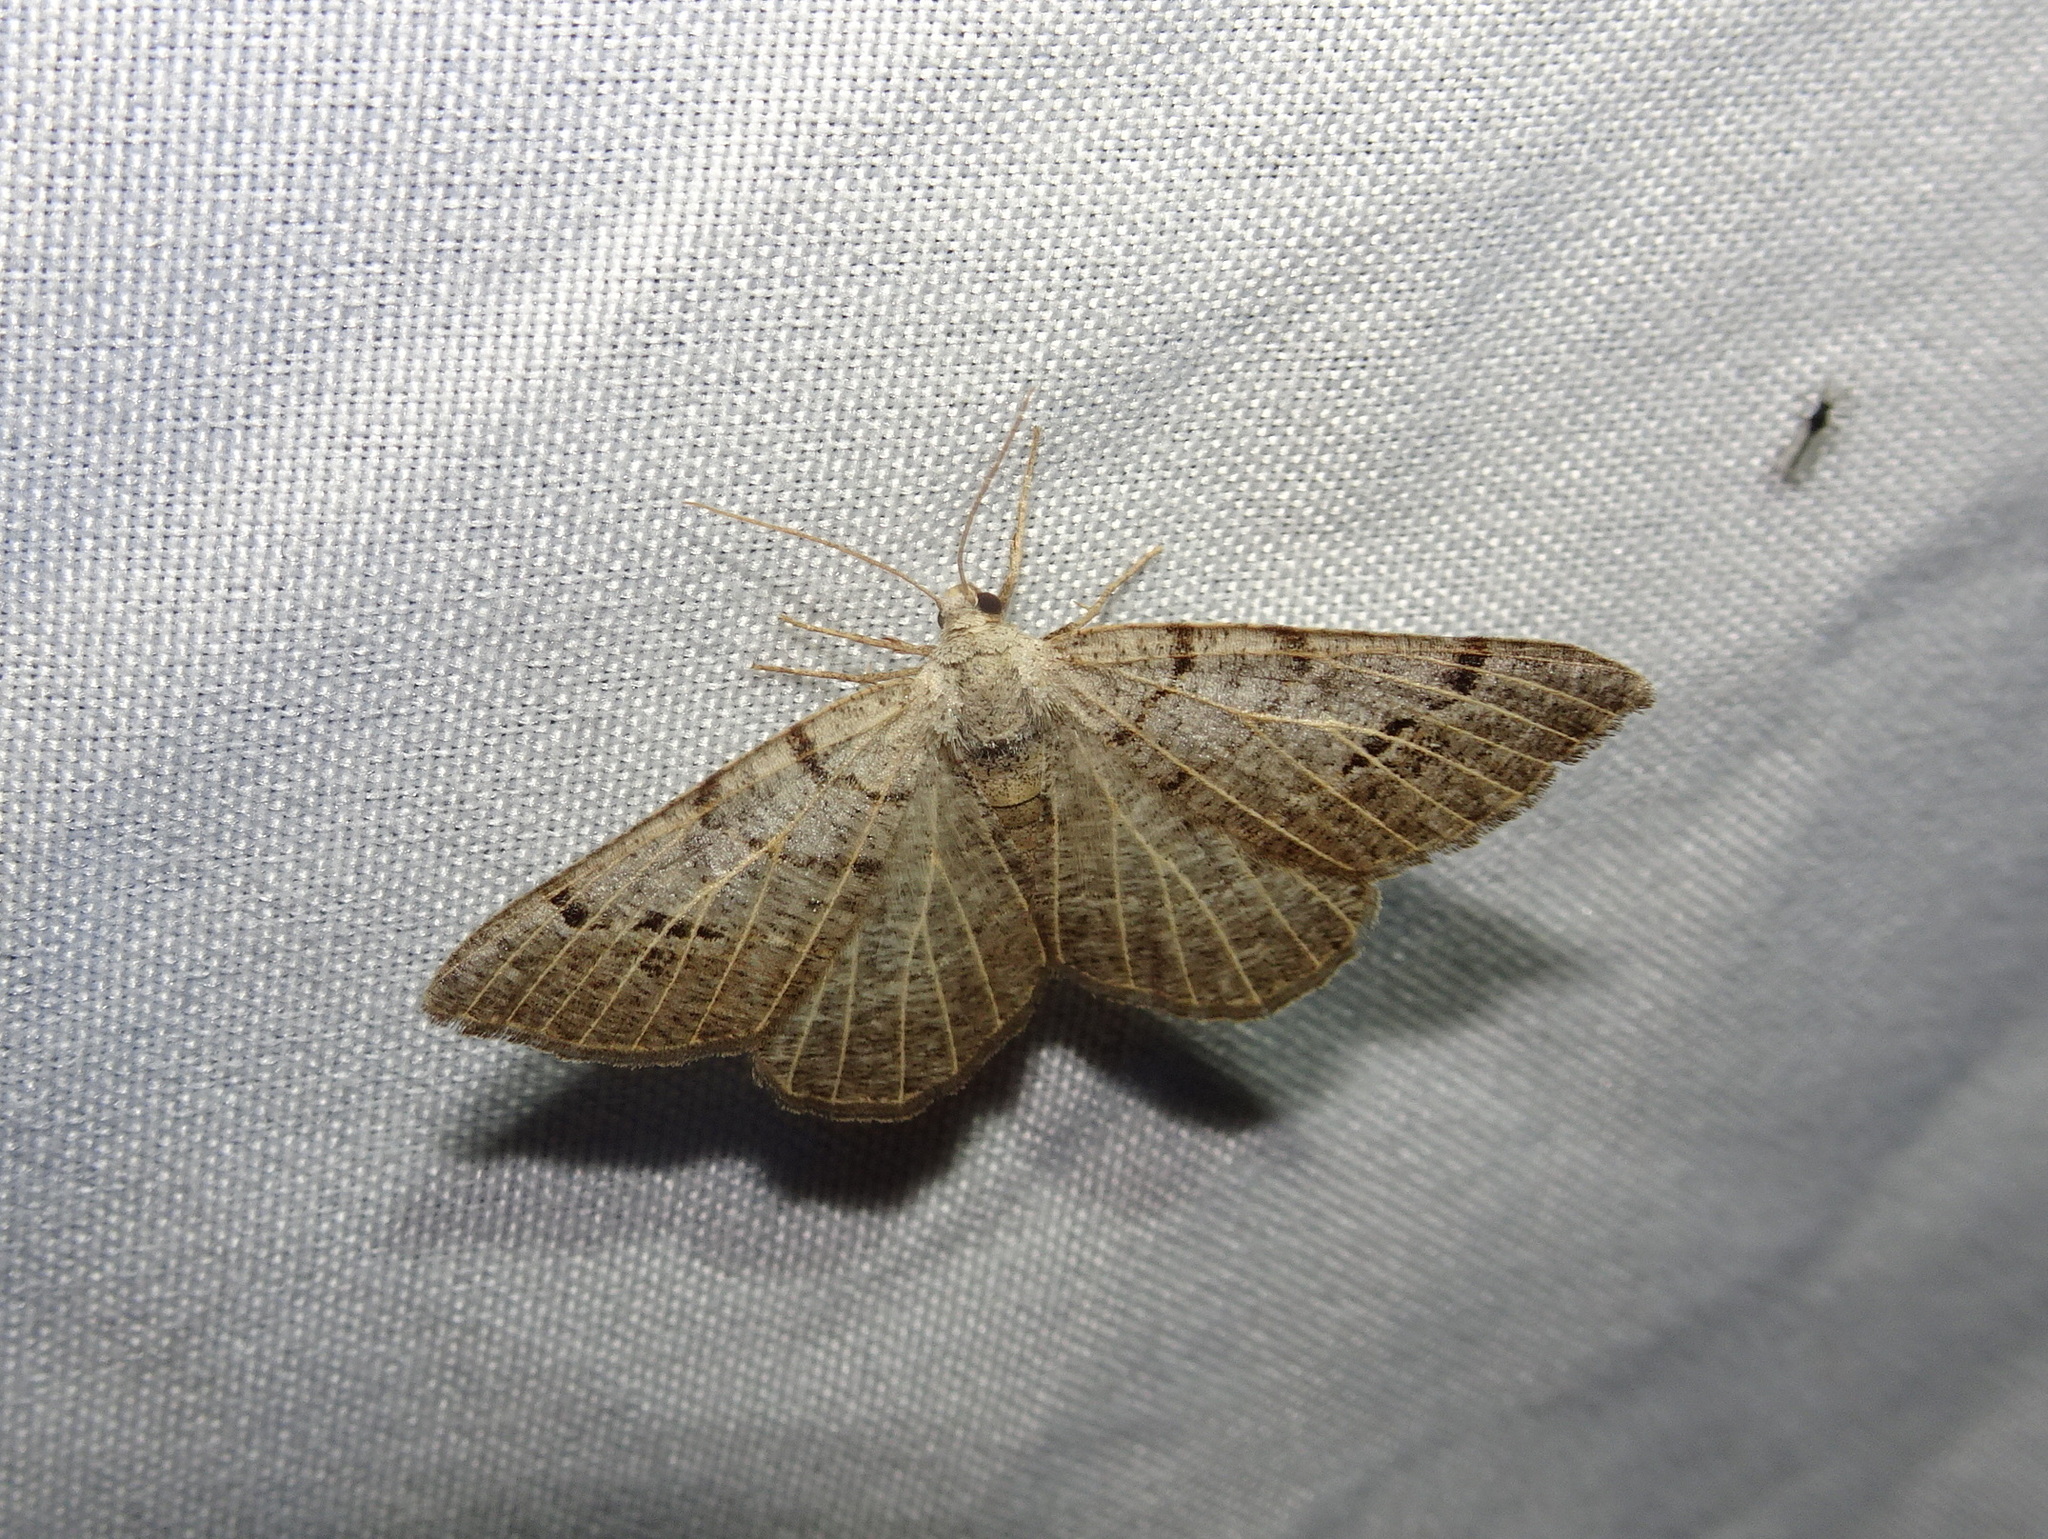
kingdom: Animalia
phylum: Arthropoda
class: Insecta
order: Lepidoptera
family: Geometridae
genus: Isturgia
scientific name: Isturgia dislocaria
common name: Pale-viened enconista
